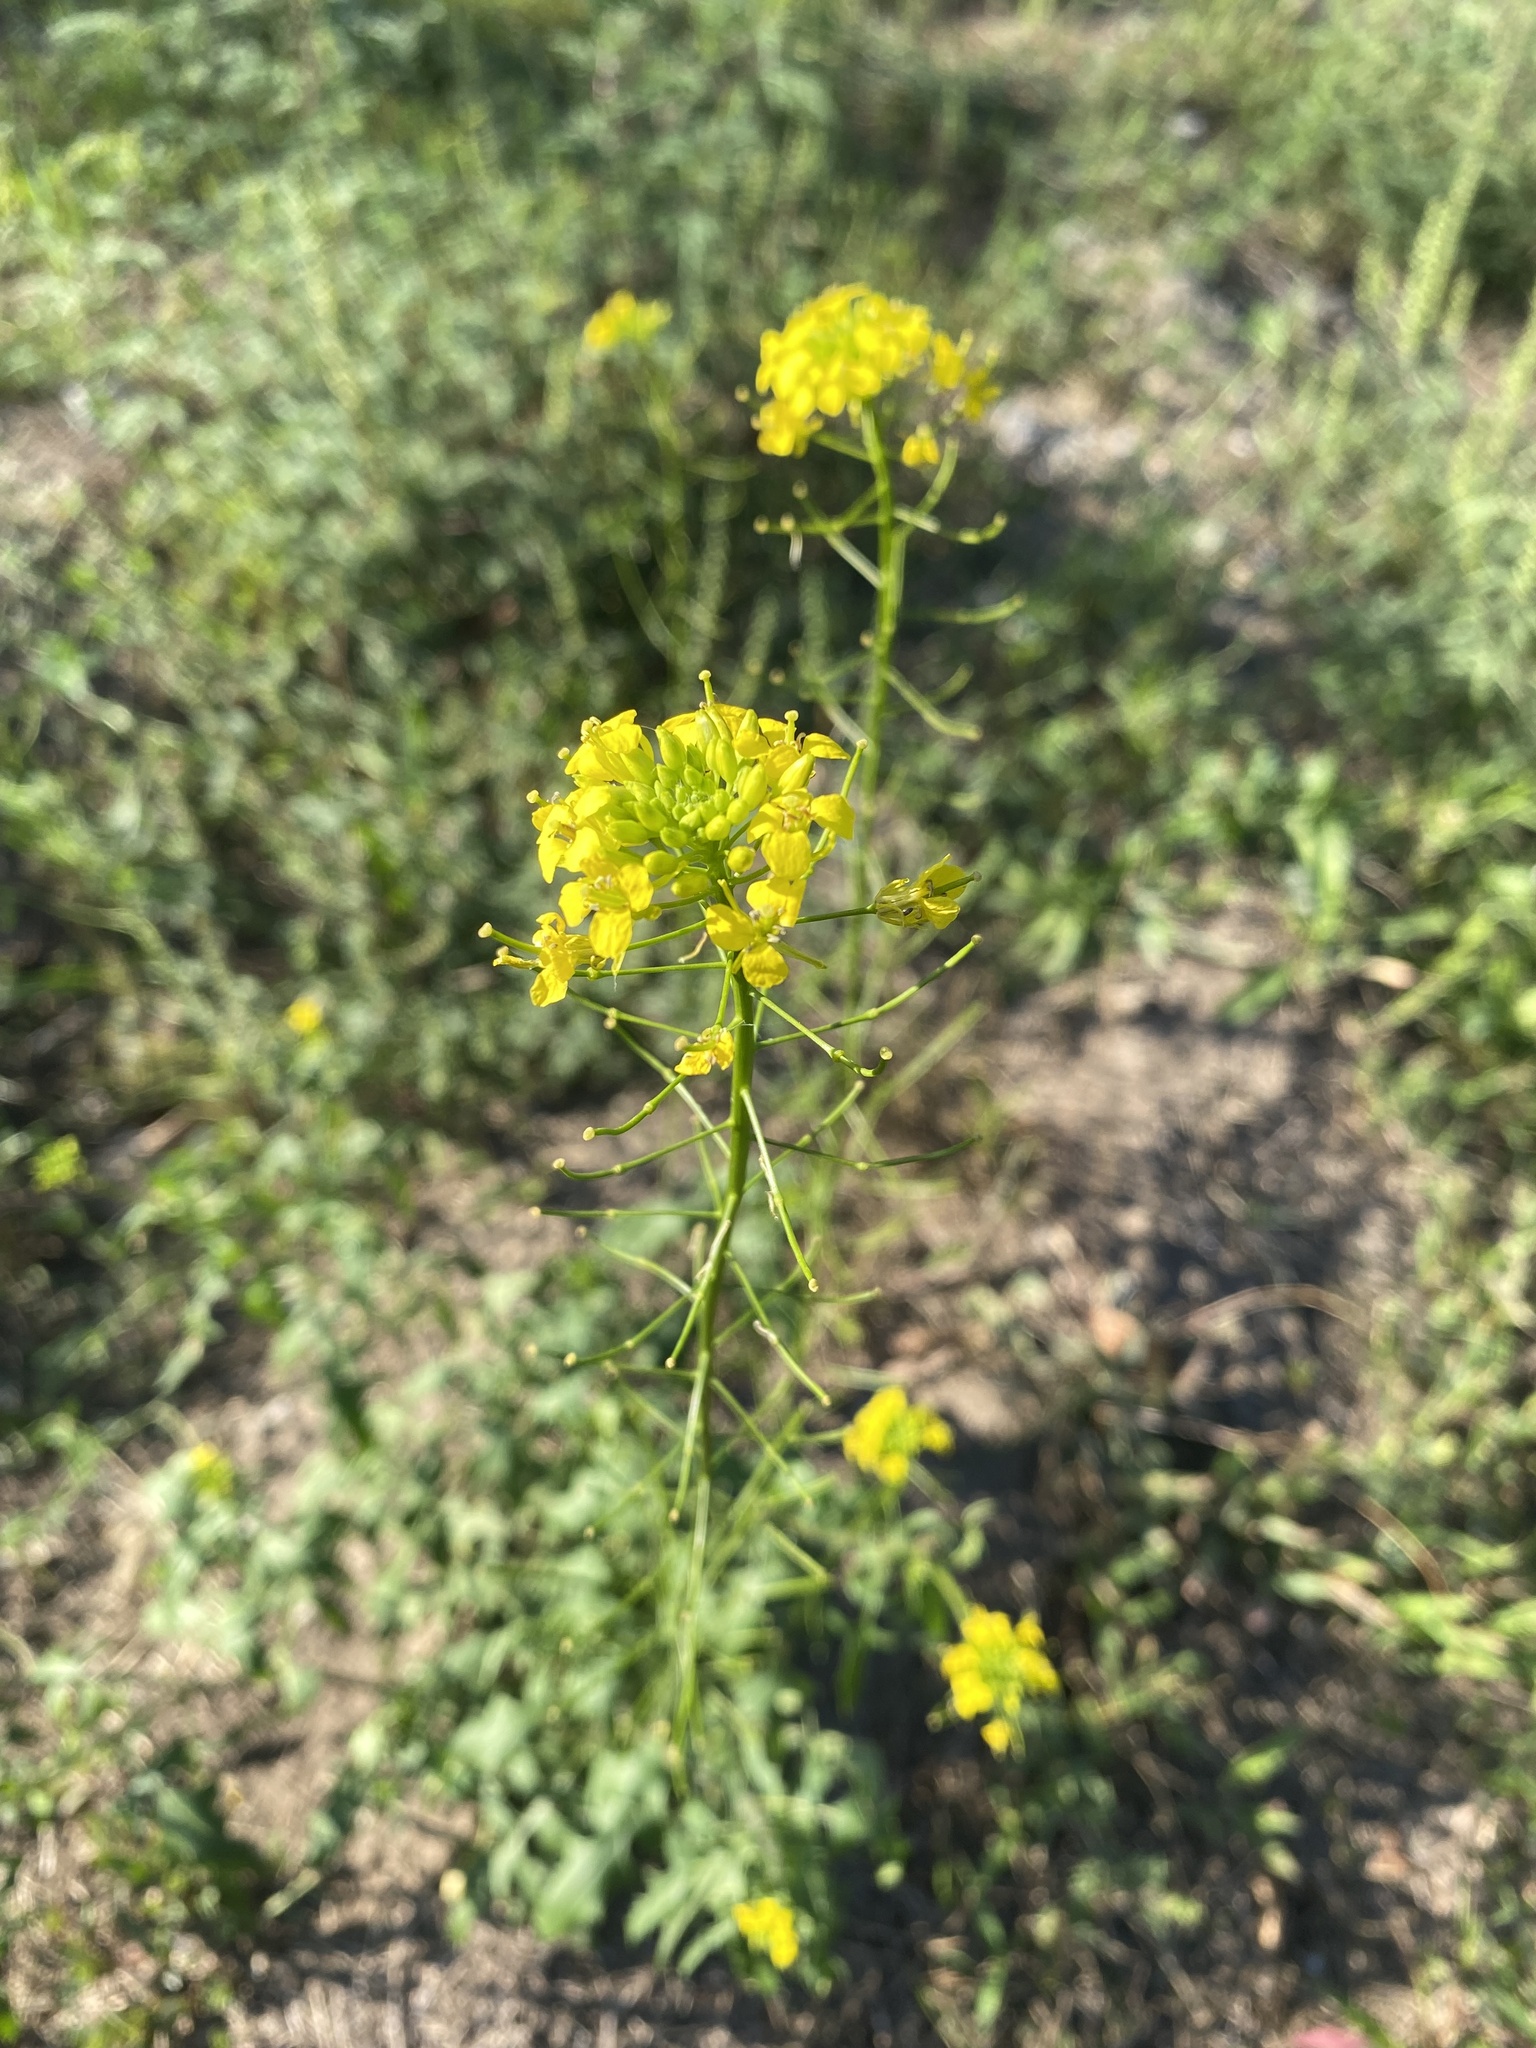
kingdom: Plantae
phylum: Tracheophyta
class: Magnoliopsida
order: Brassicales
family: Brassicaceae
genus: Sisymbrium
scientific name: Sisymbrium loeselii
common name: False london-rocket
